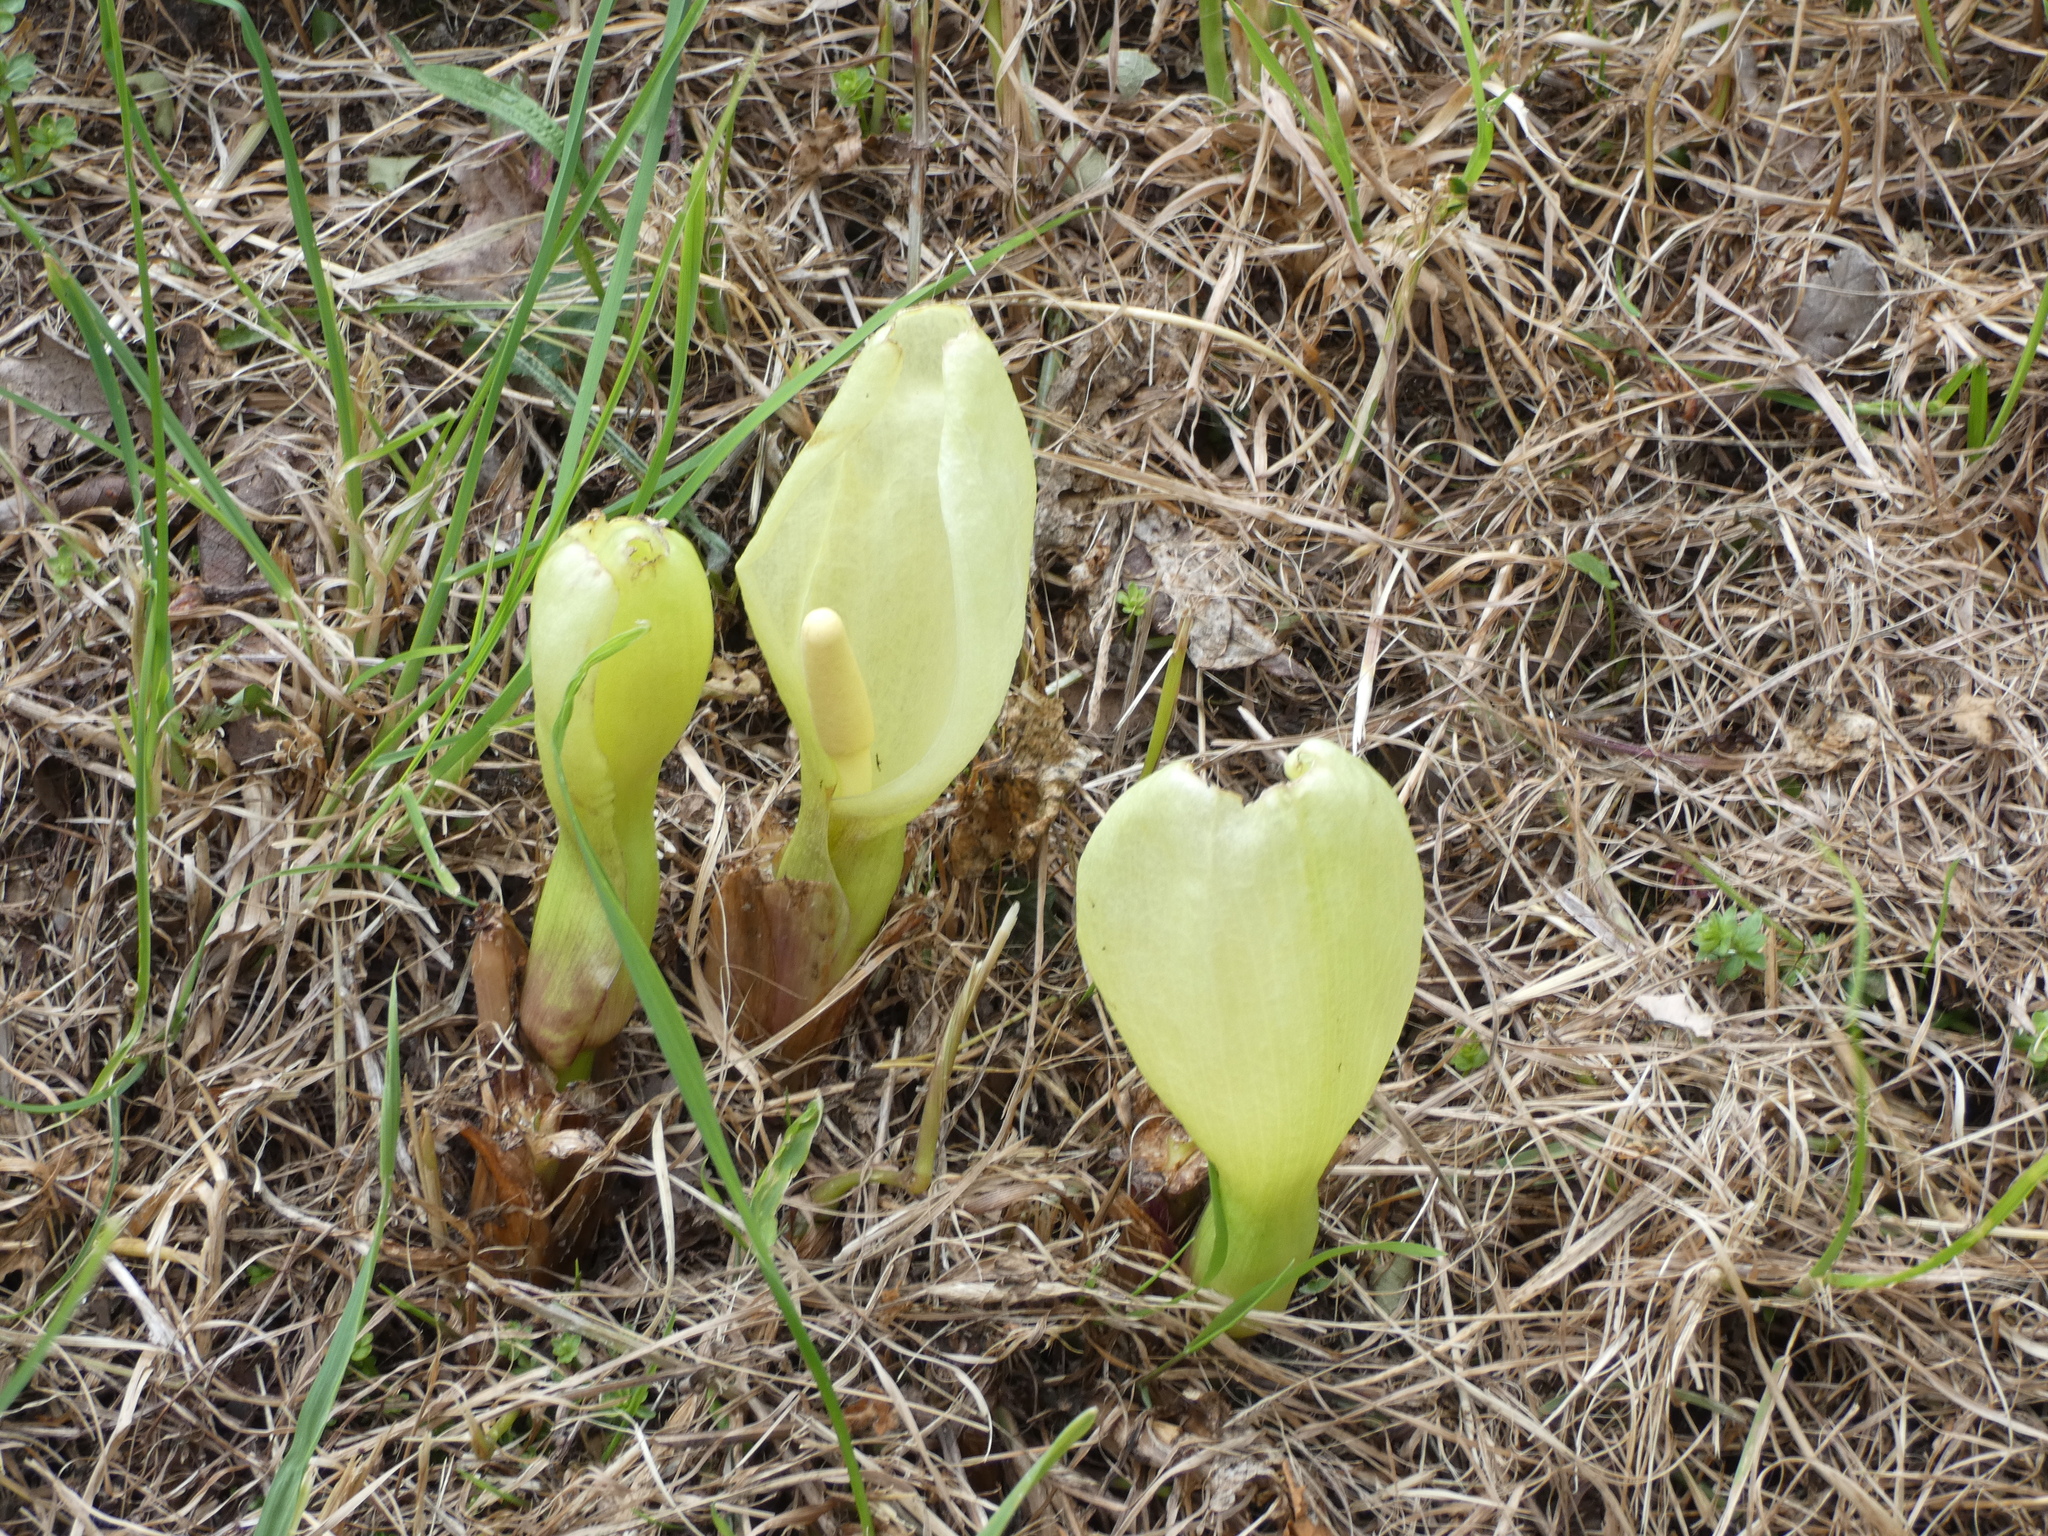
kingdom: Plantae
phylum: Tracheophyta
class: Liliopsida
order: Alismatales
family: Araceae
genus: Arum
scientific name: Arum italicum
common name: Italian lords-and-ladies
